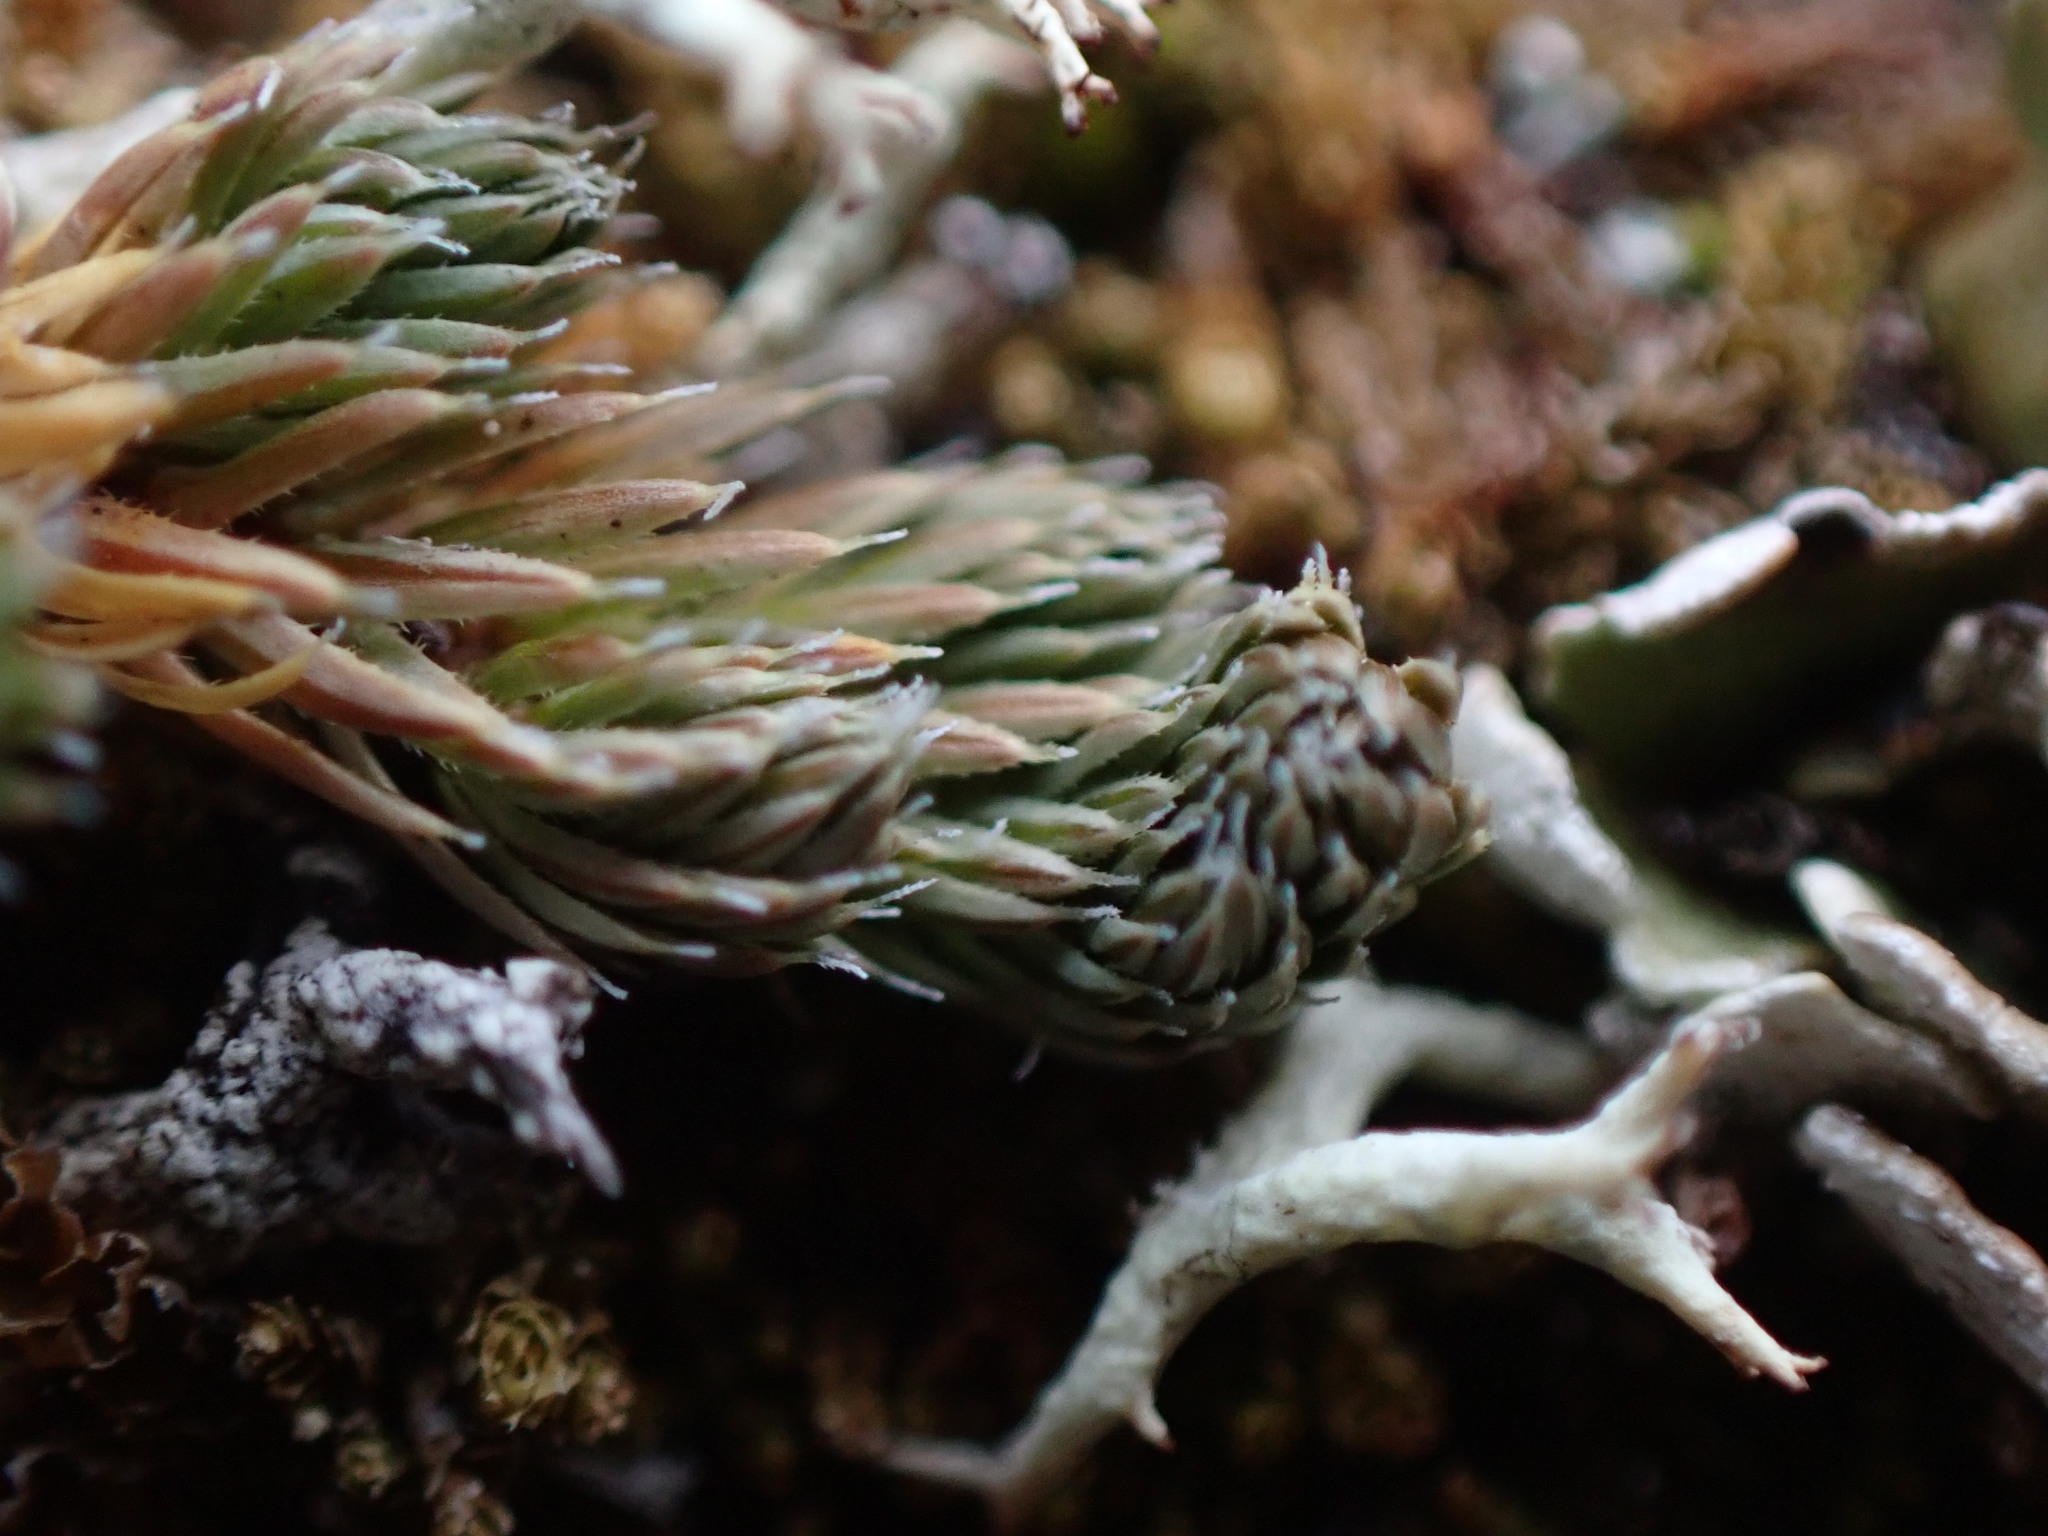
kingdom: Plantae
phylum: Tracheophyta
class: Lycopodiopsida
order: Selaginellales
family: Selaginellaceae
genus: Selaginella
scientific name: Selaginella densa
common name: Mountain spike-moss
